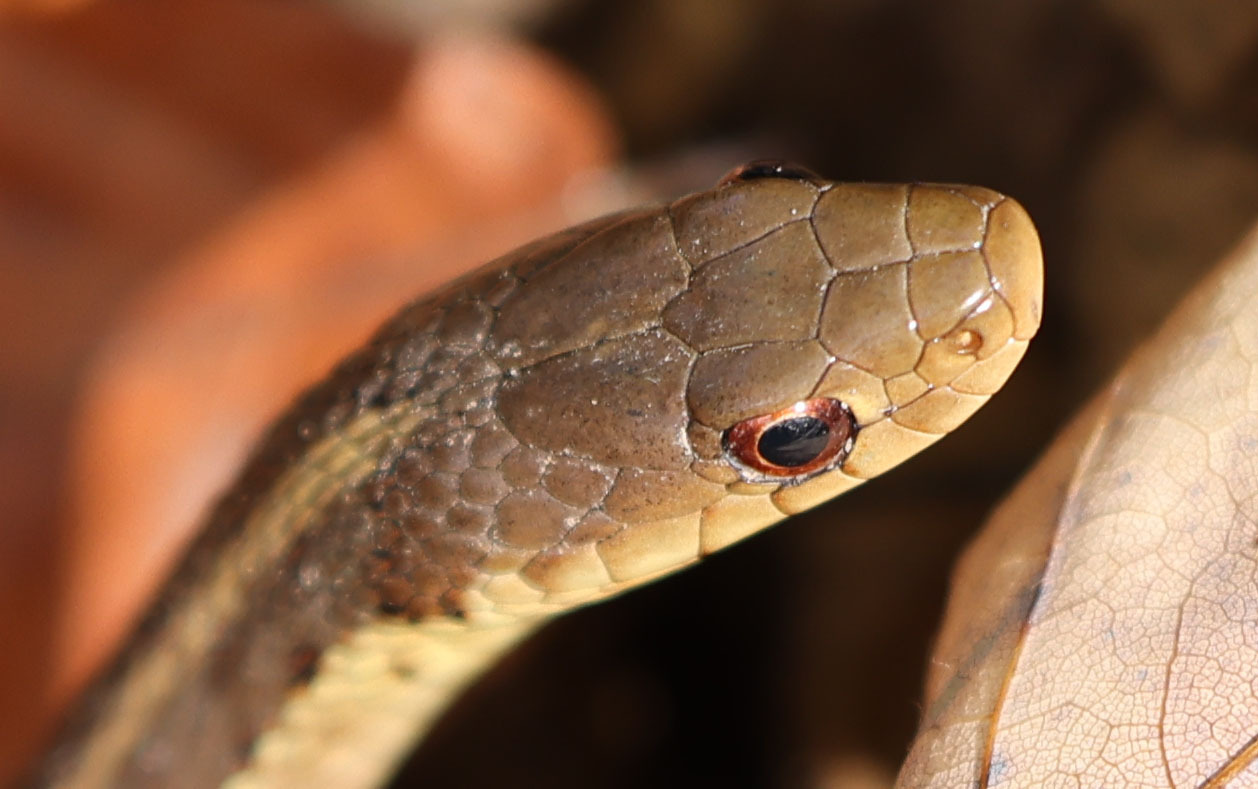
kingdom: Animalia
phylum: Chordata
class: Squamata
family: Colubridae
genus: Thamnophis
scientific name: Thamnophis sirtalis
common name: Common garter snake
